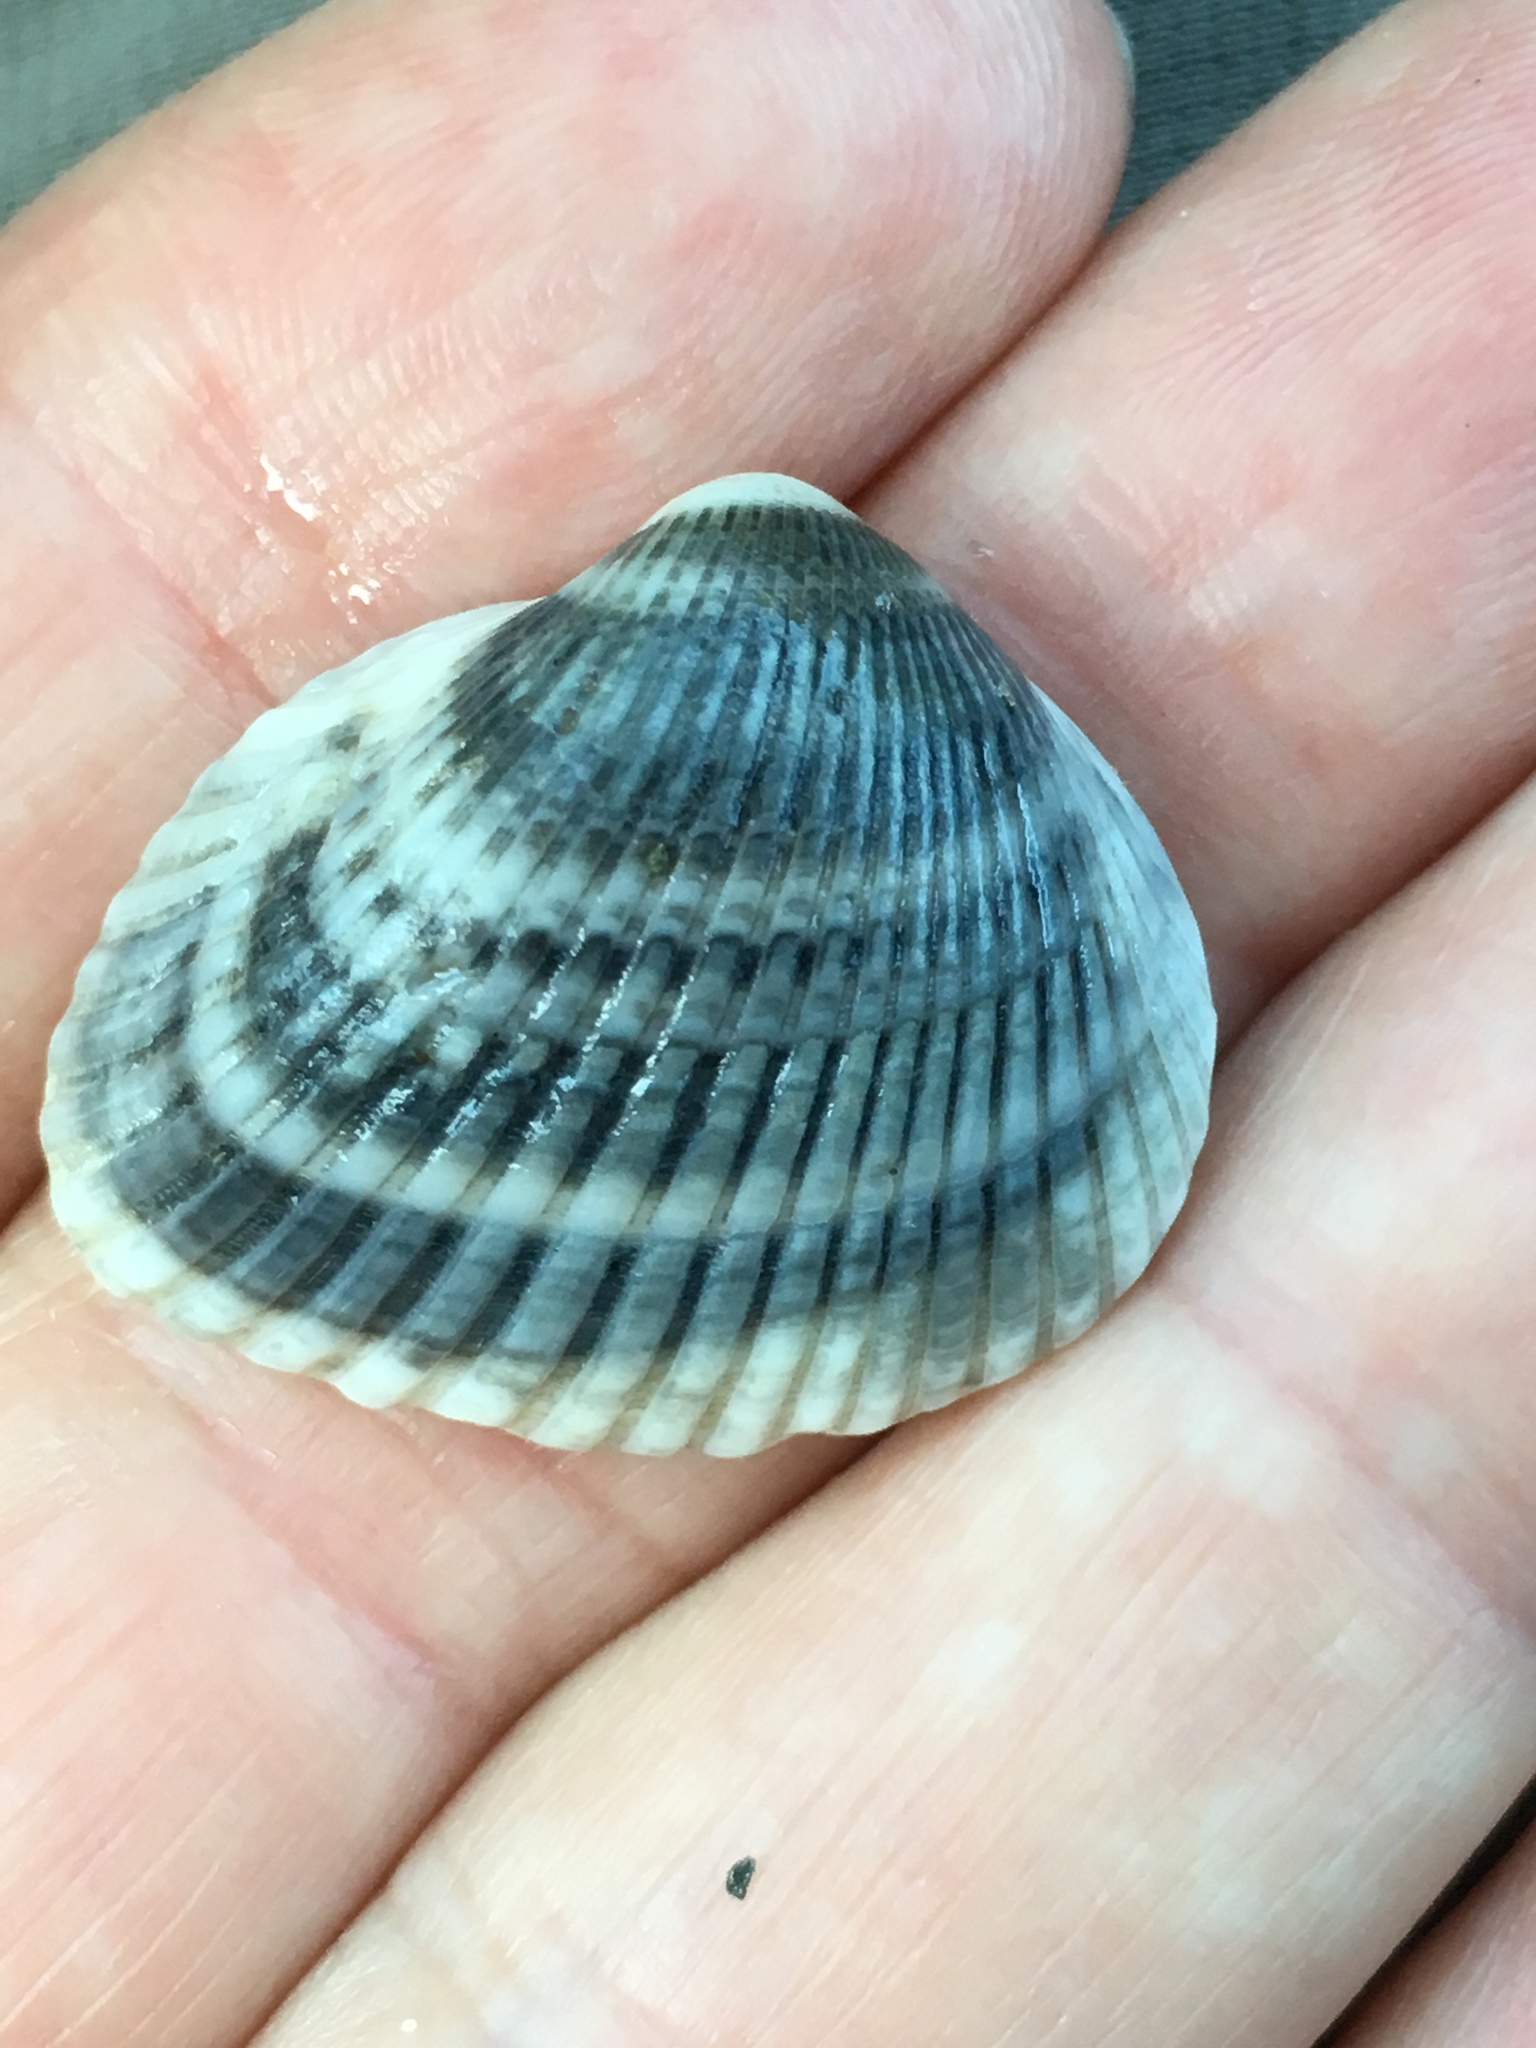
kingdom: Animalia
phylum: Mollusca
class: Bivalvia
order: Arcida
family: Noetiidae
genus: Noetia
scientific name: Noetia ponderosa
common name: Ponderous ark
